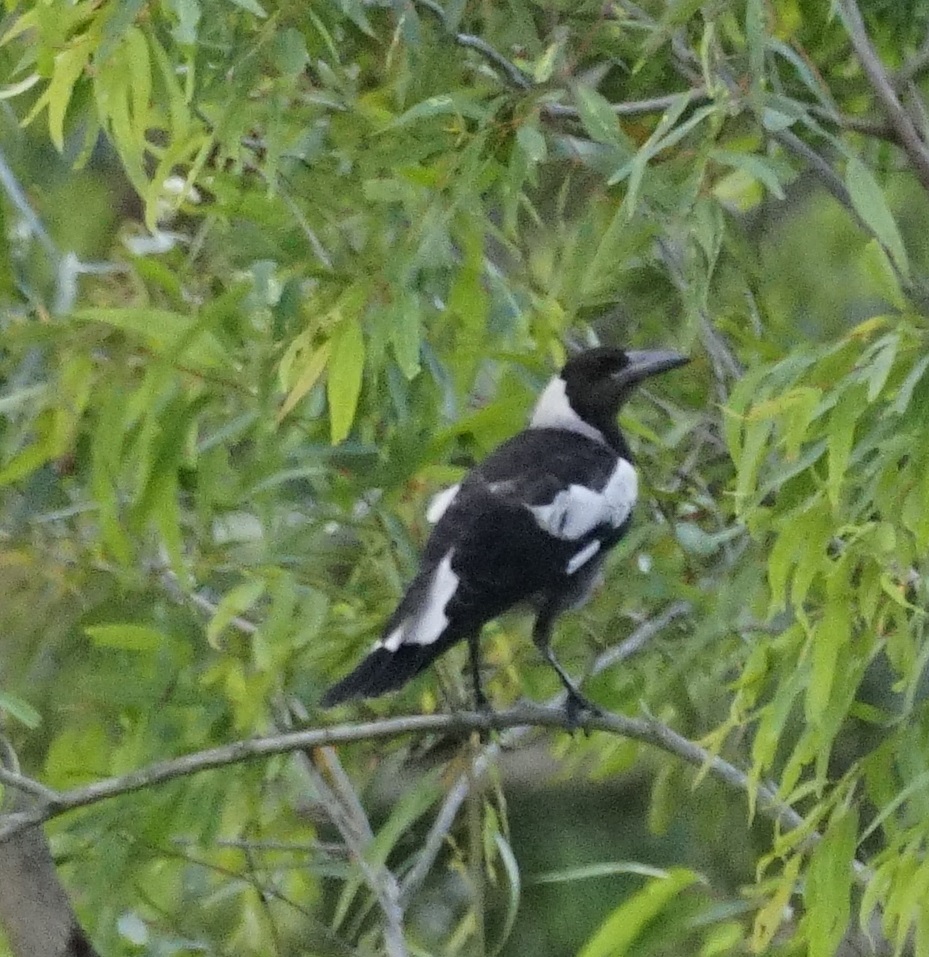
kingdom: Animalia
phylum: Chordata
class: Aves
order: Passeriformes
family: Cracticidae
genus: Gymnorhina
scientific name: Gymnorhina tibicen
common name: Australian magpie
